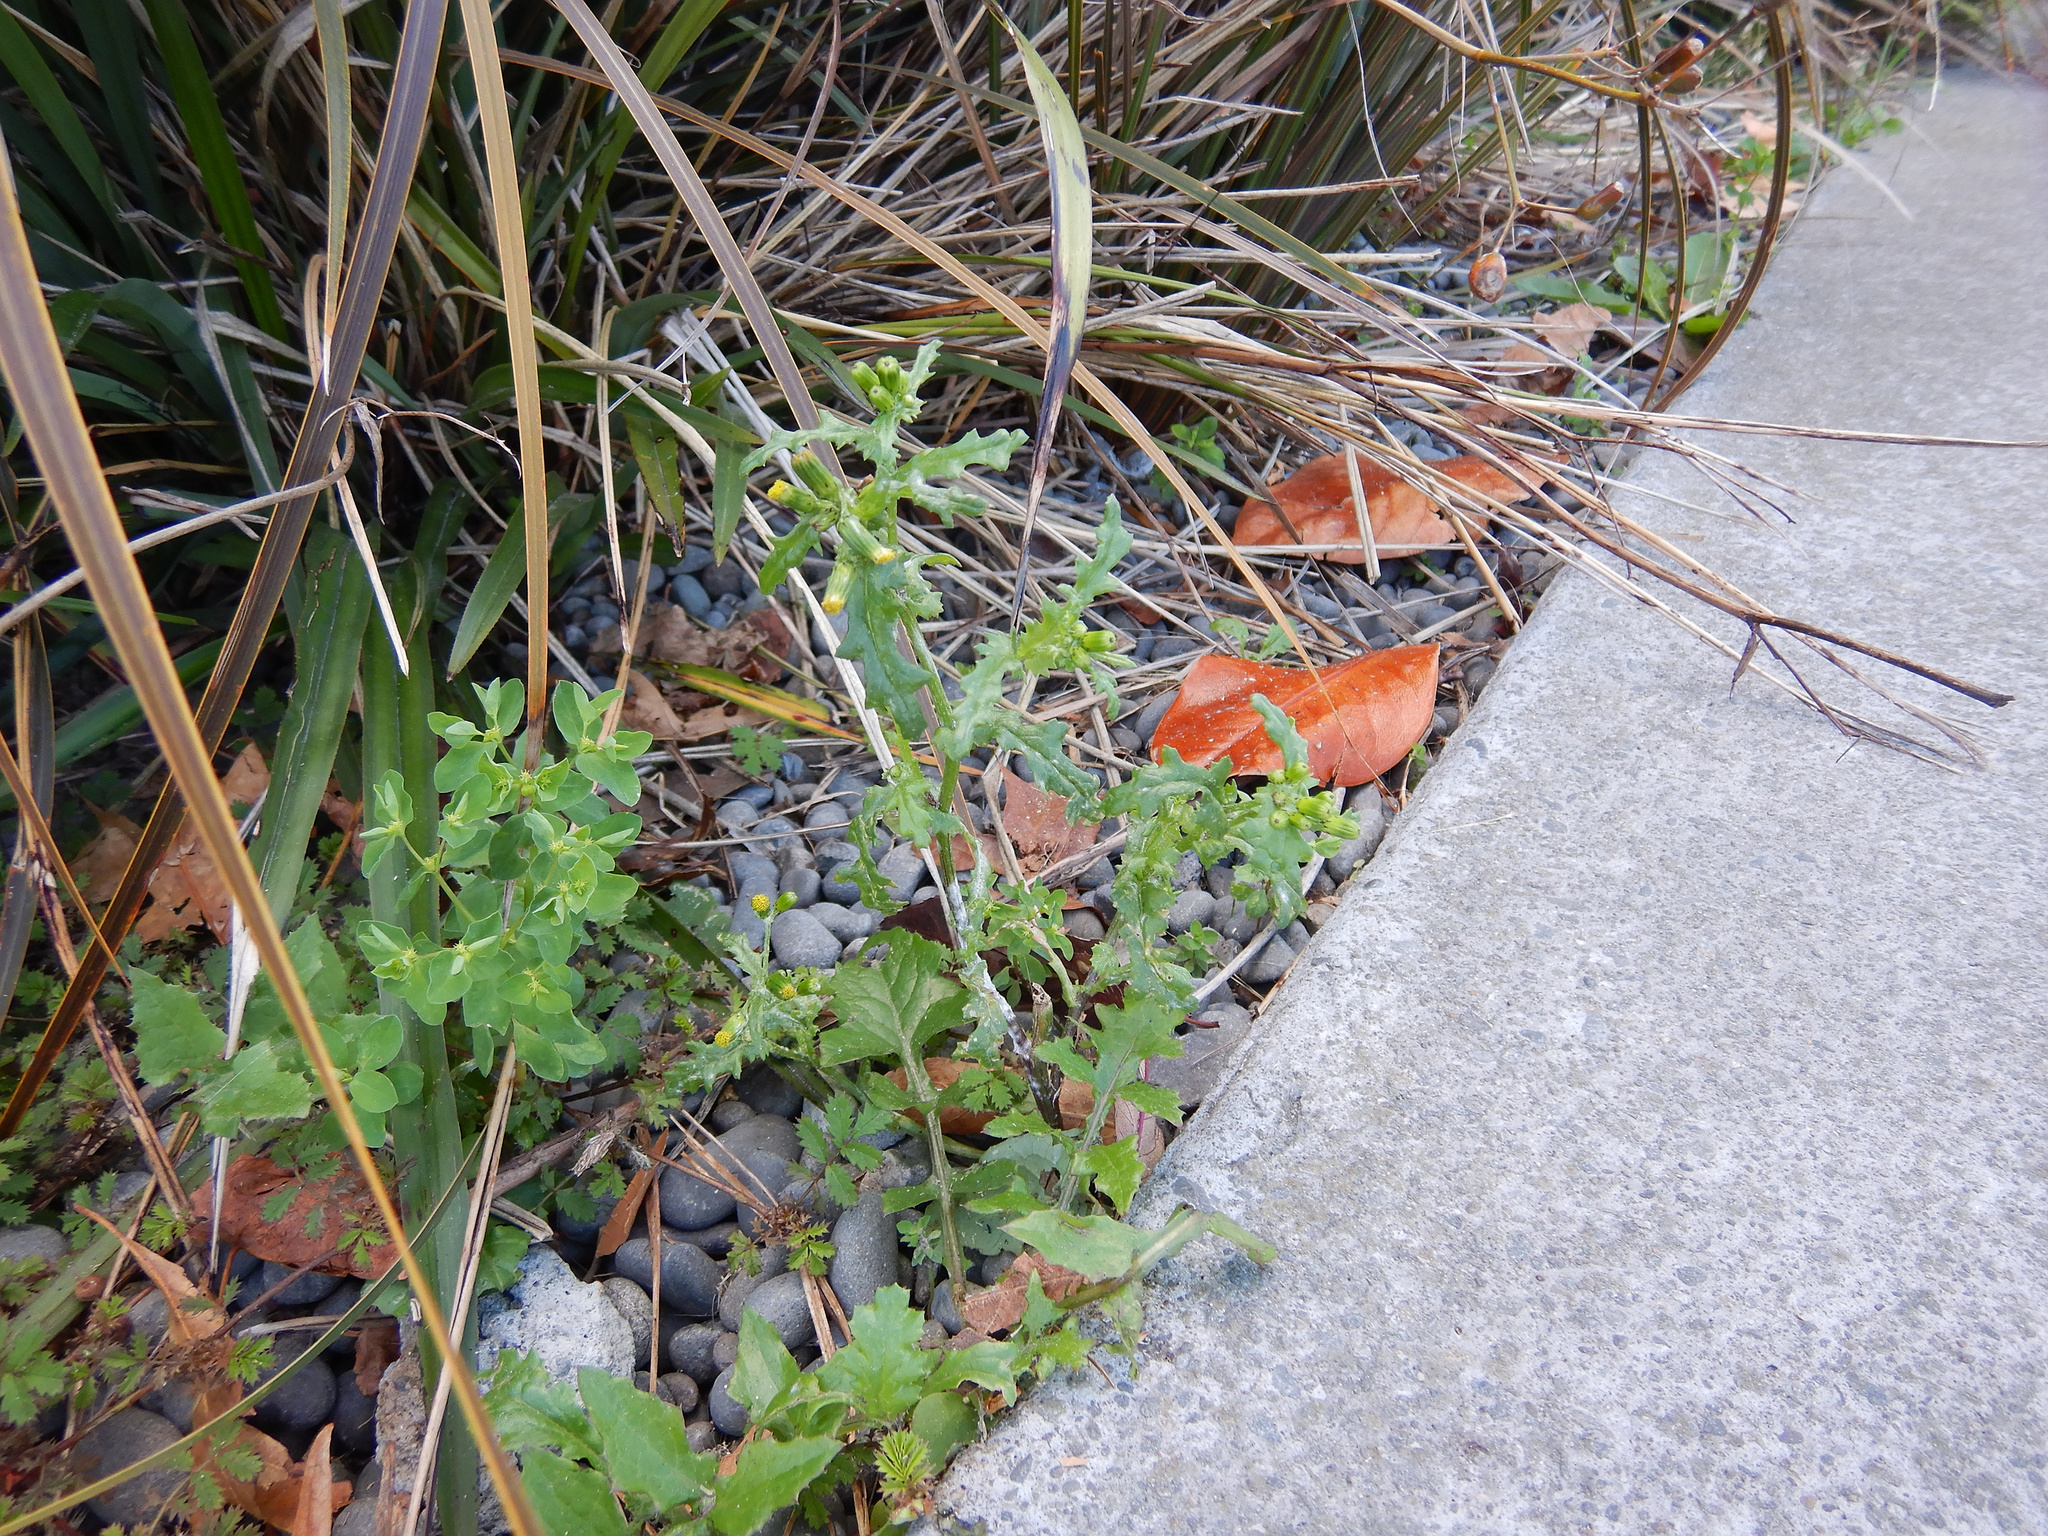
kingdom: Plantae
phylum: Tracheophyta
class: Magnoliopsida
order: Asterales
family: Asteraceae
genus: Senecio
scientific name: Senecio vulgaris
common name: Old-man-in-the-spring
